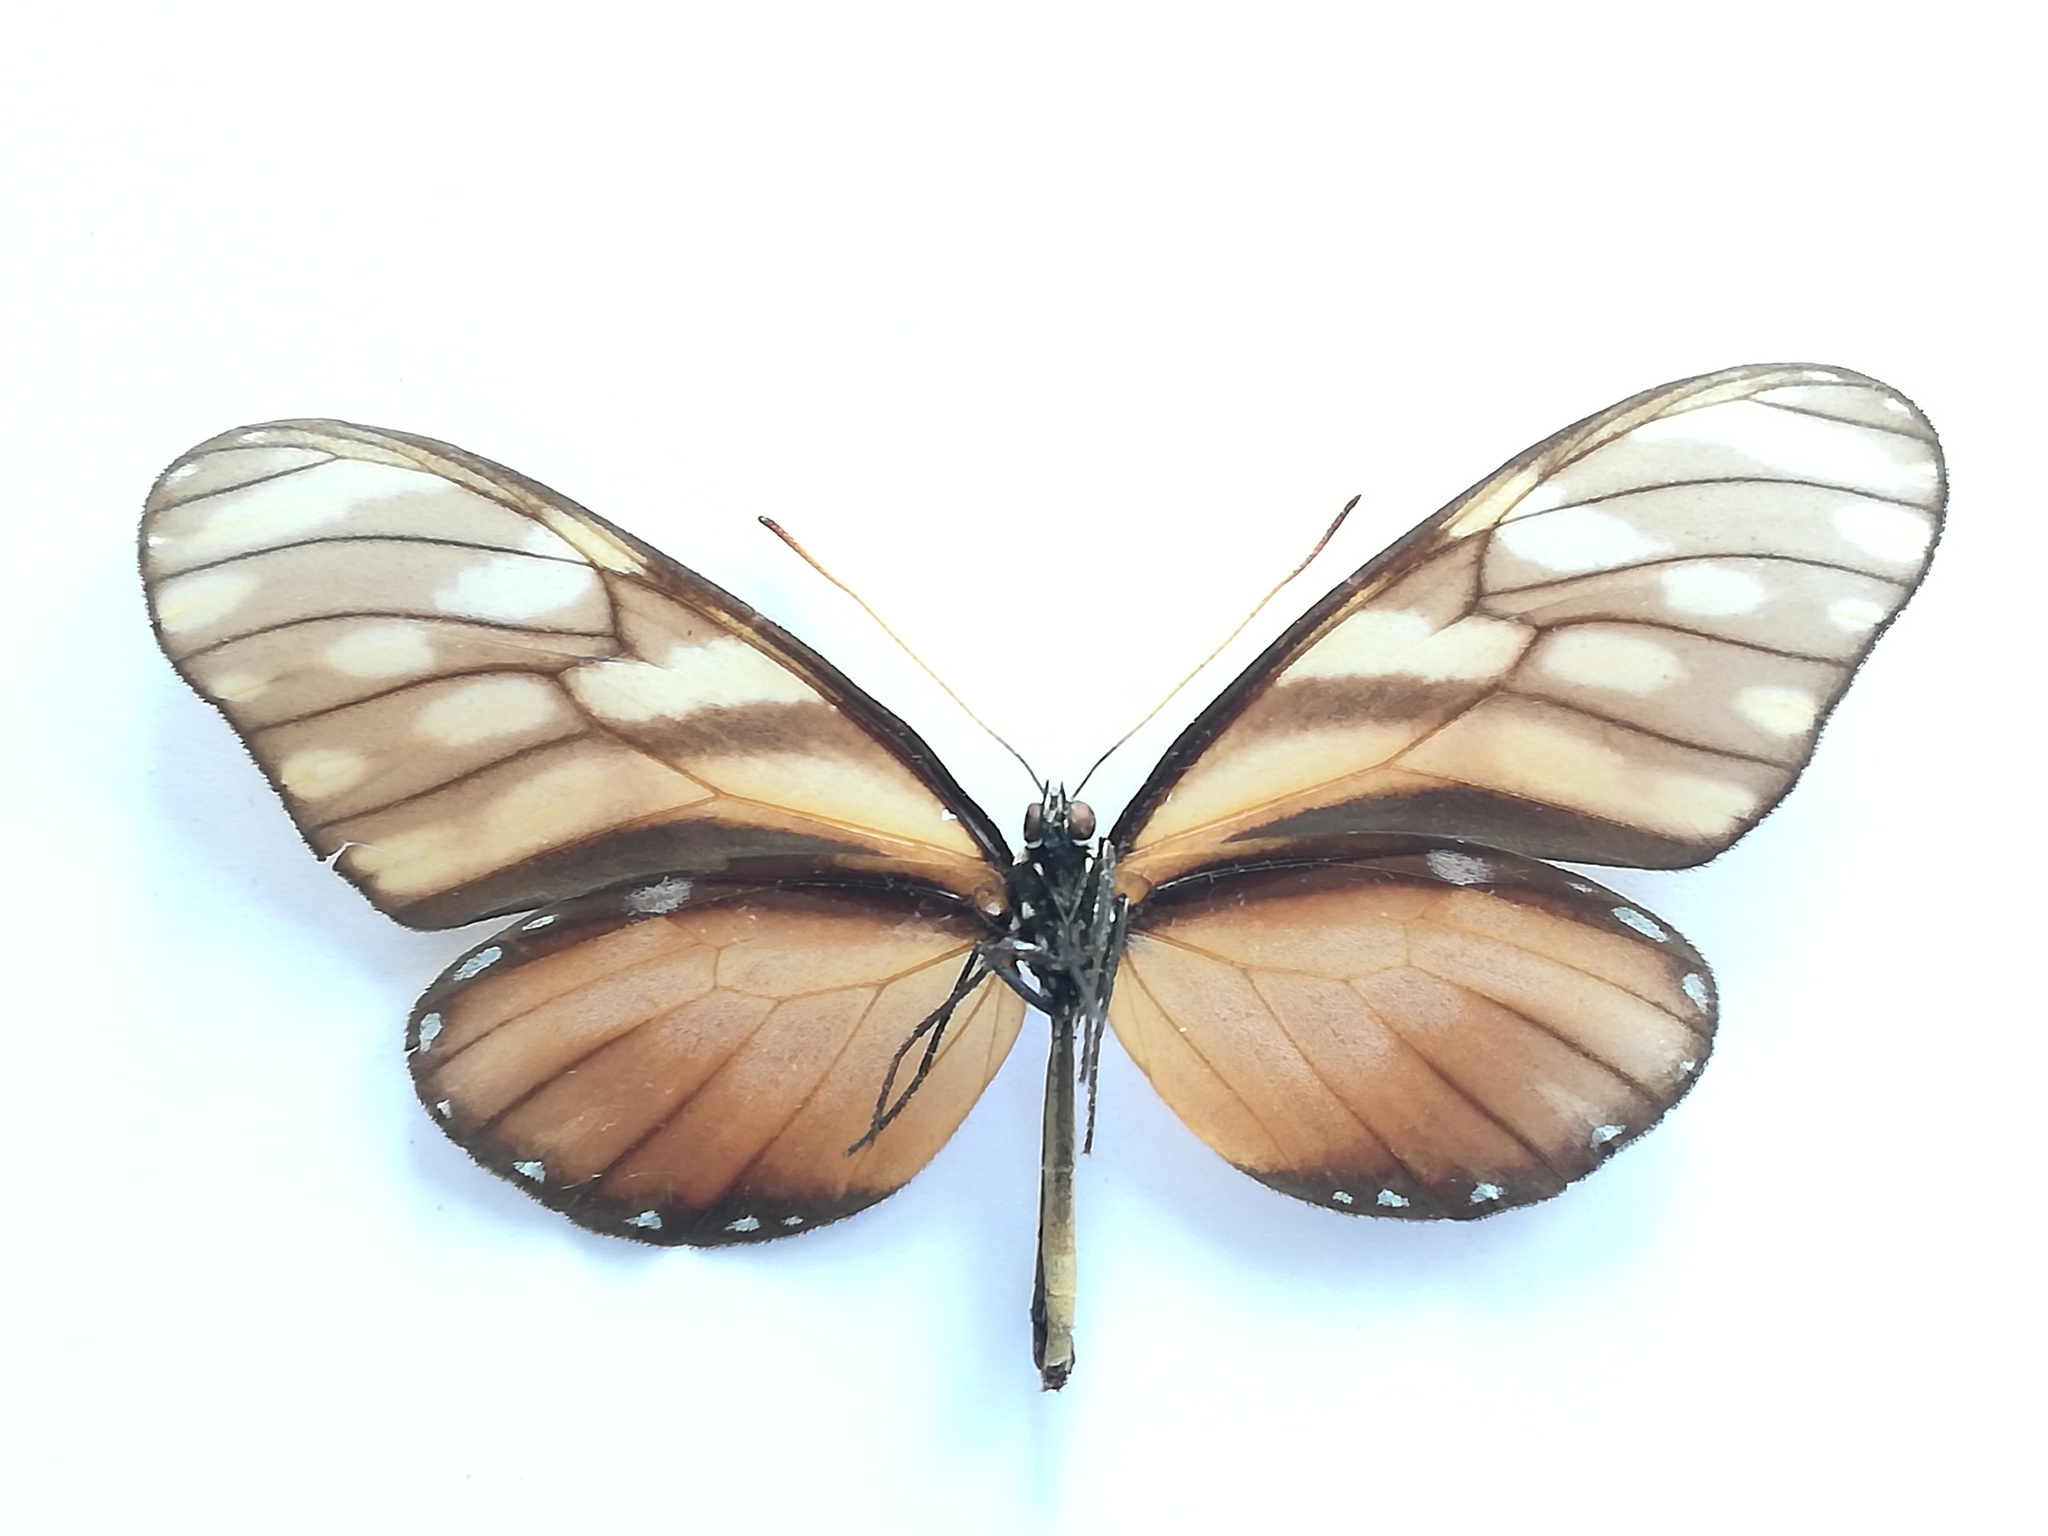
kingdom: Animalia
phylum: Arthropoda
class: Insecta
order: Lepidoptera
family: Nymphalidae
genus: Dircenna
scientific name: Dircenna klugii
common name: Klug’s clearwing
